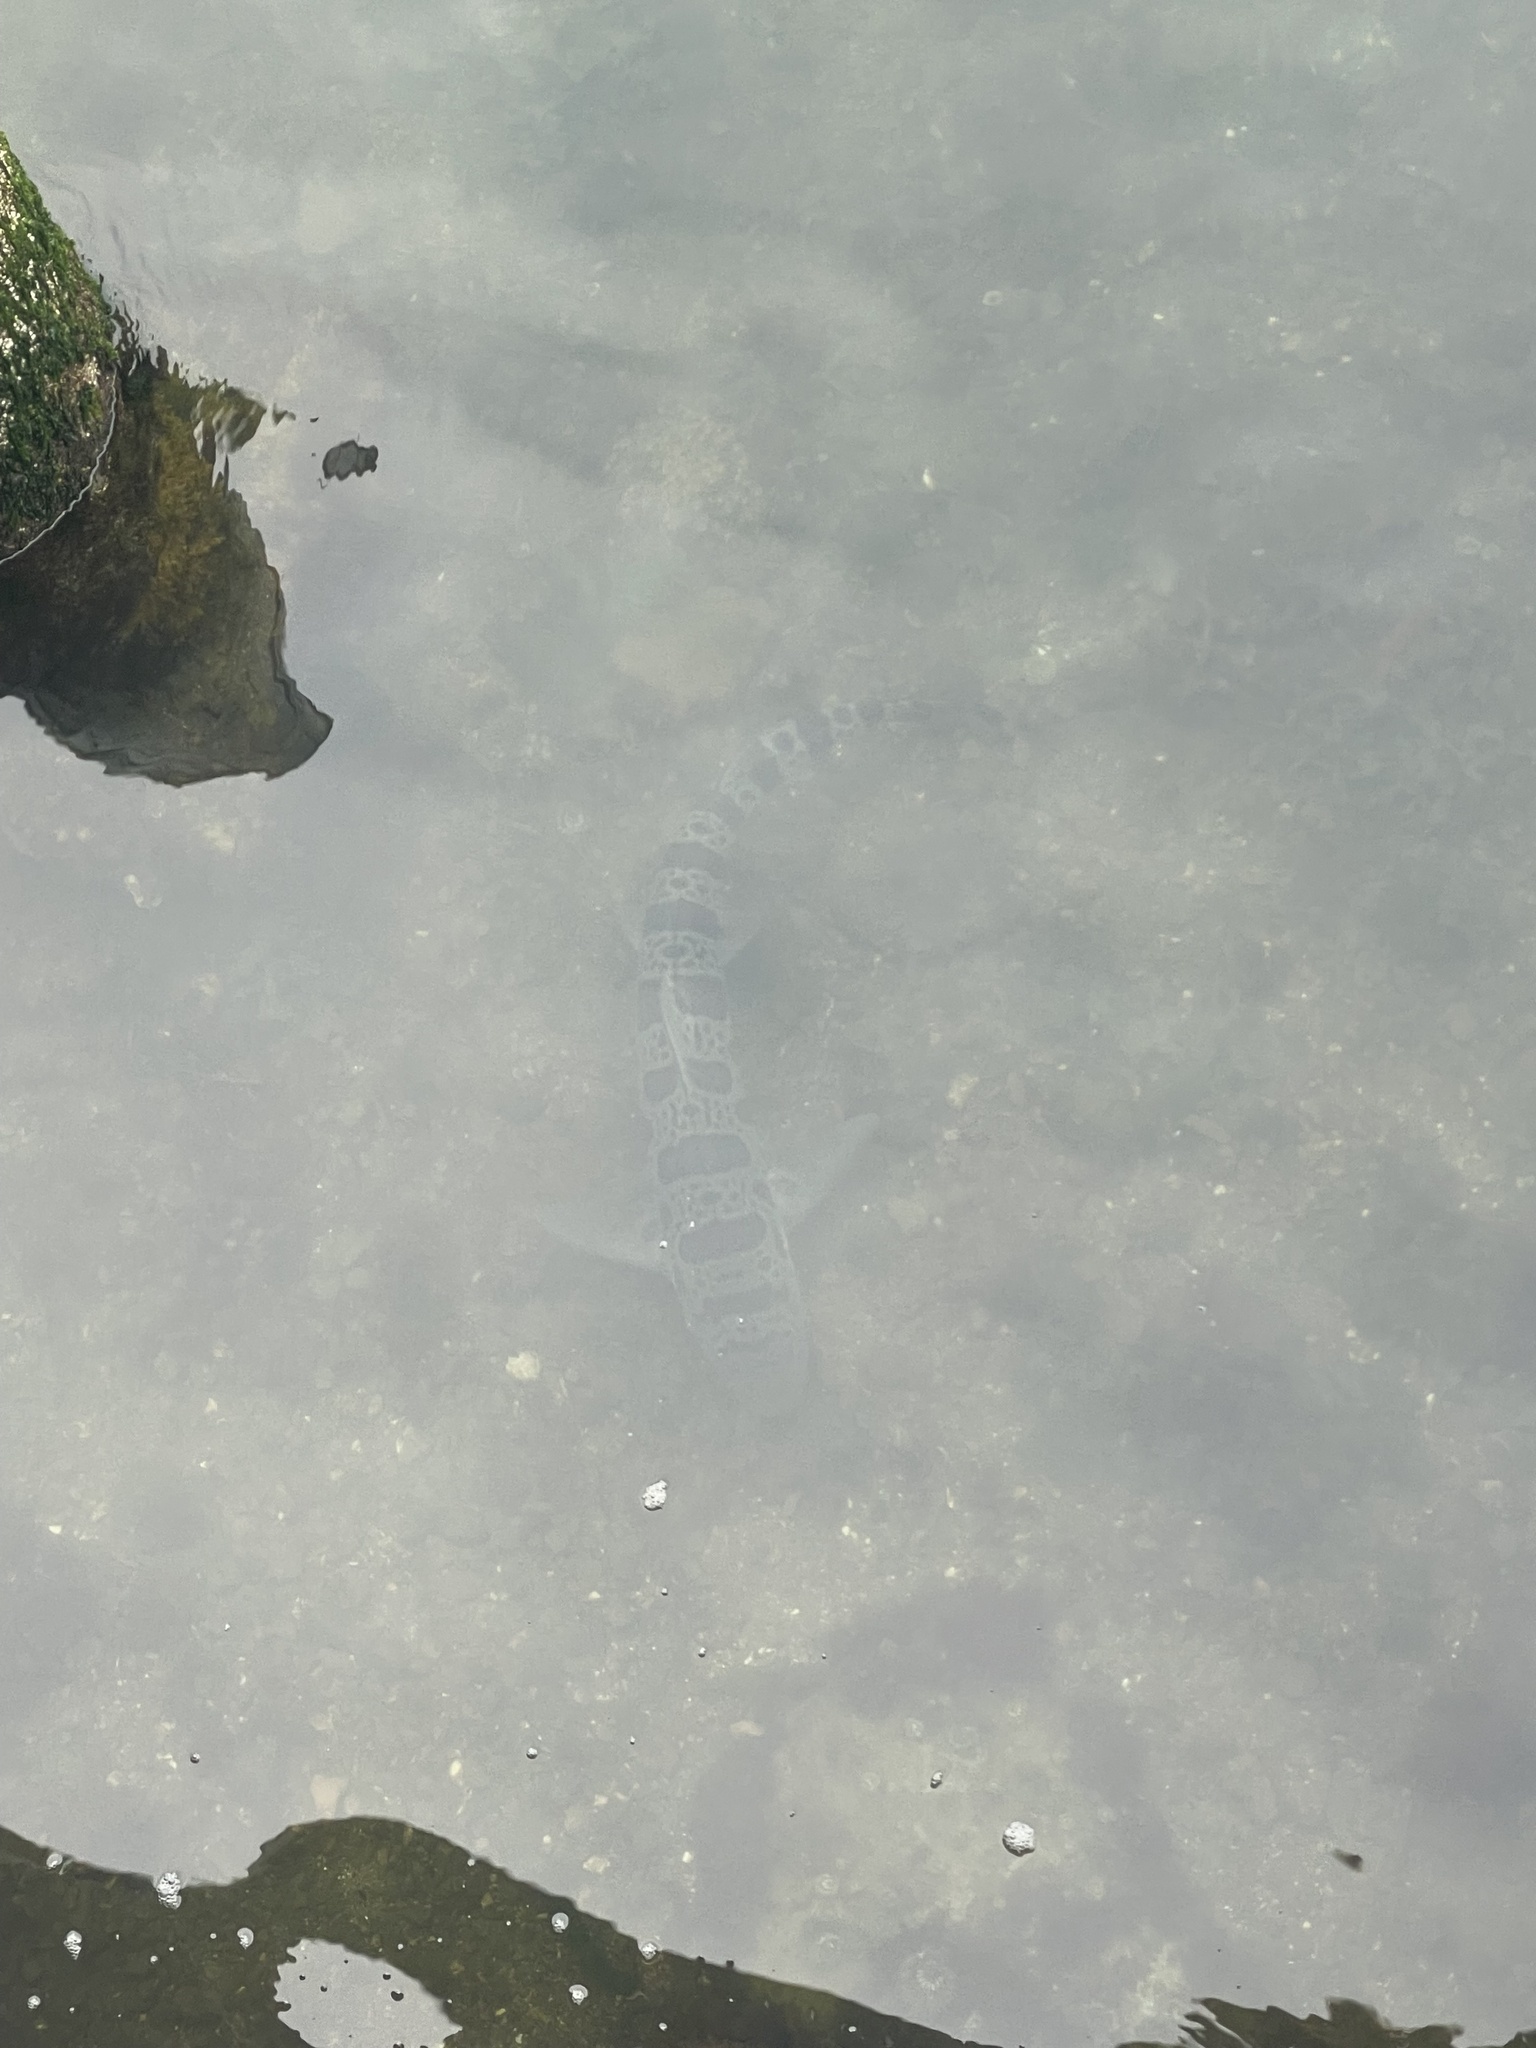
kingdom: Animalia
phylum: Chordata
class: Elasmobranchii
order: Carcharhiniformes
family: Triakidae
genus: Triakis
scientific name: Triakis semifasciata
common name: Leopard shark
